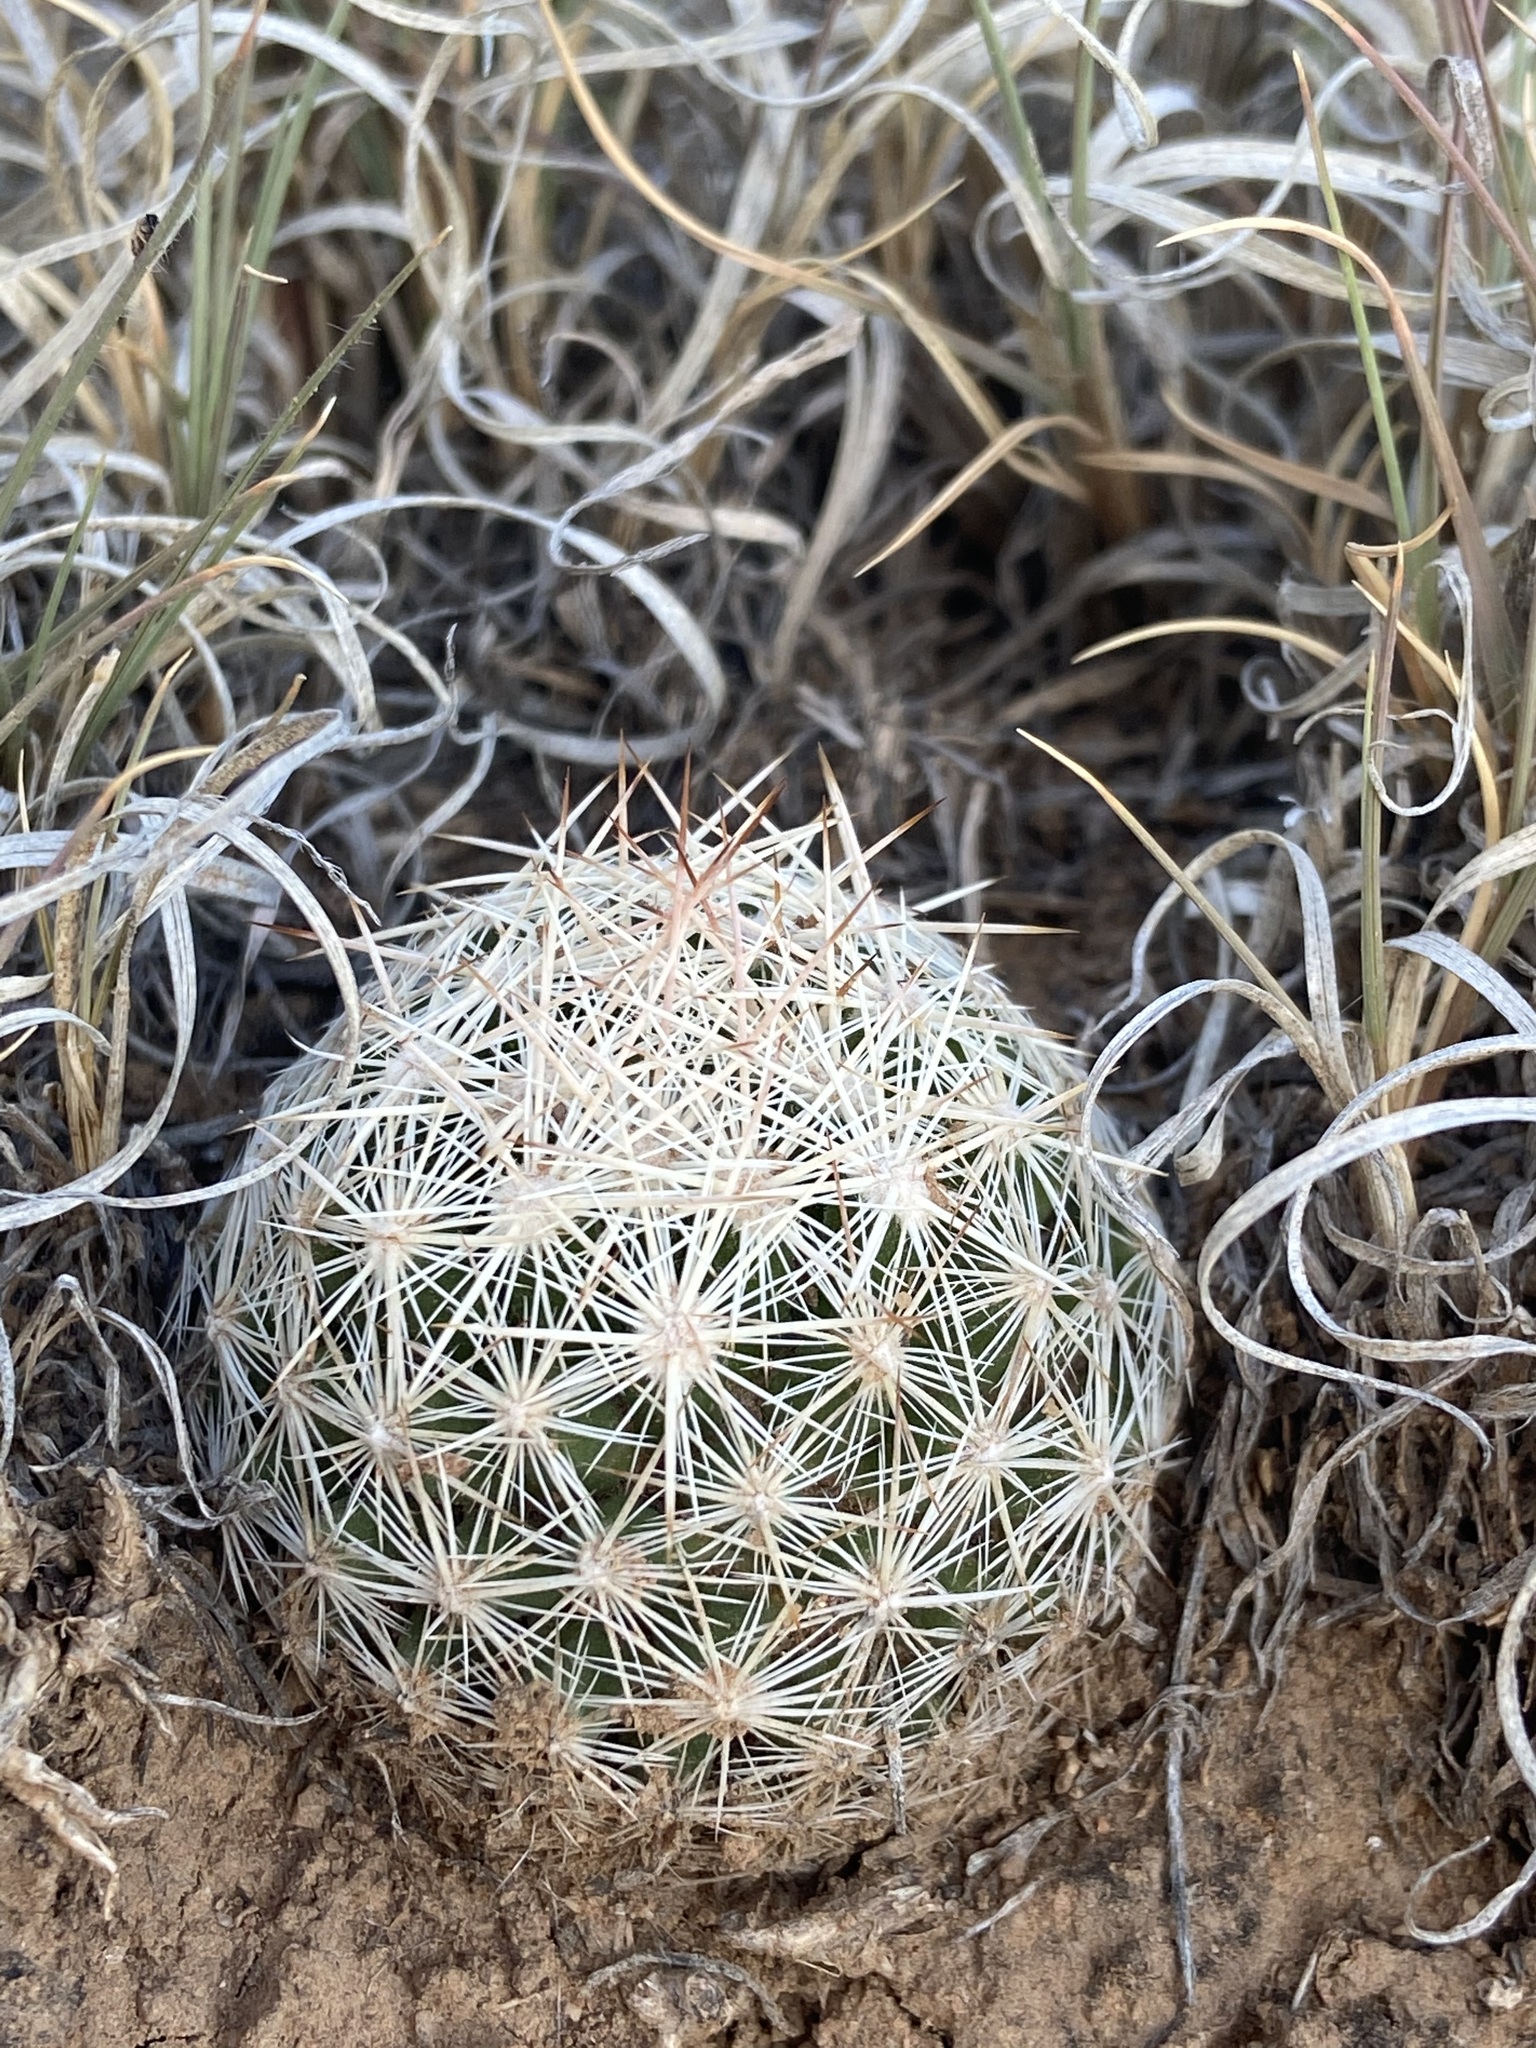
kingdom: Plantae
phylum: Tracheophyta
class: Magnoliopsida
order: Caryophyllales
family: Cactaceae
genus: Pelecyphora
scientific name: Pelecyphora vivipara
